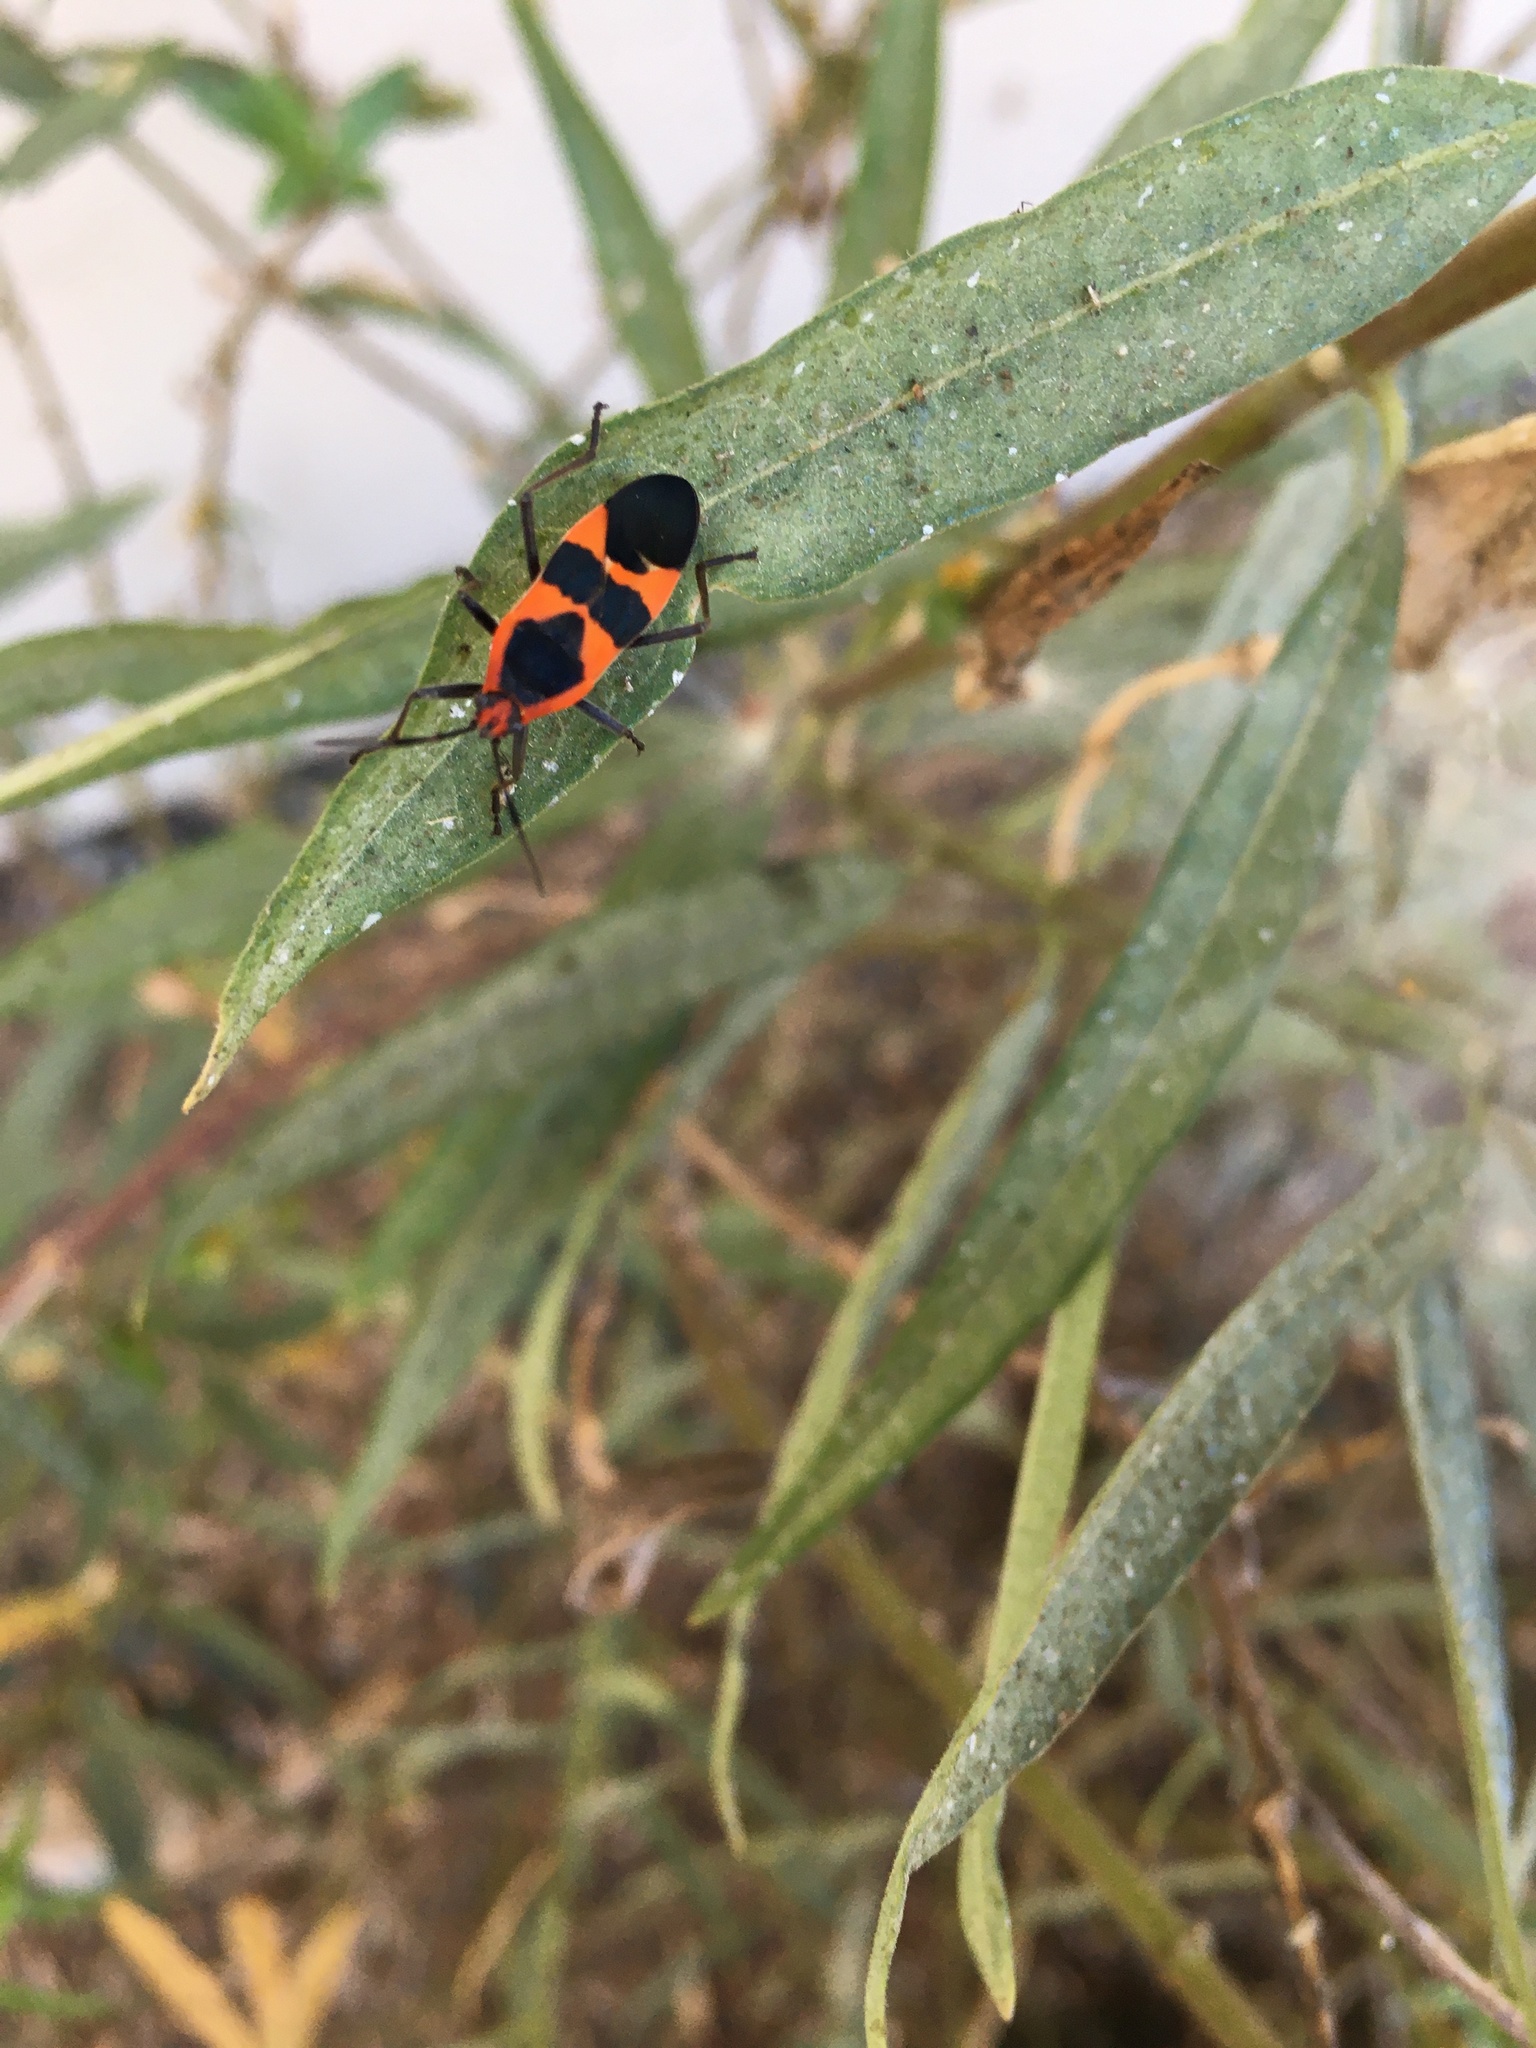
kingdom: Animalia
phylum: Arthropoda
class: Insecta
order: Hemiptera
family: Lygaeidae
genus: Oncopeltus
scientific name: Oncopeltus fasciatus
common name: Large milkweed bug
